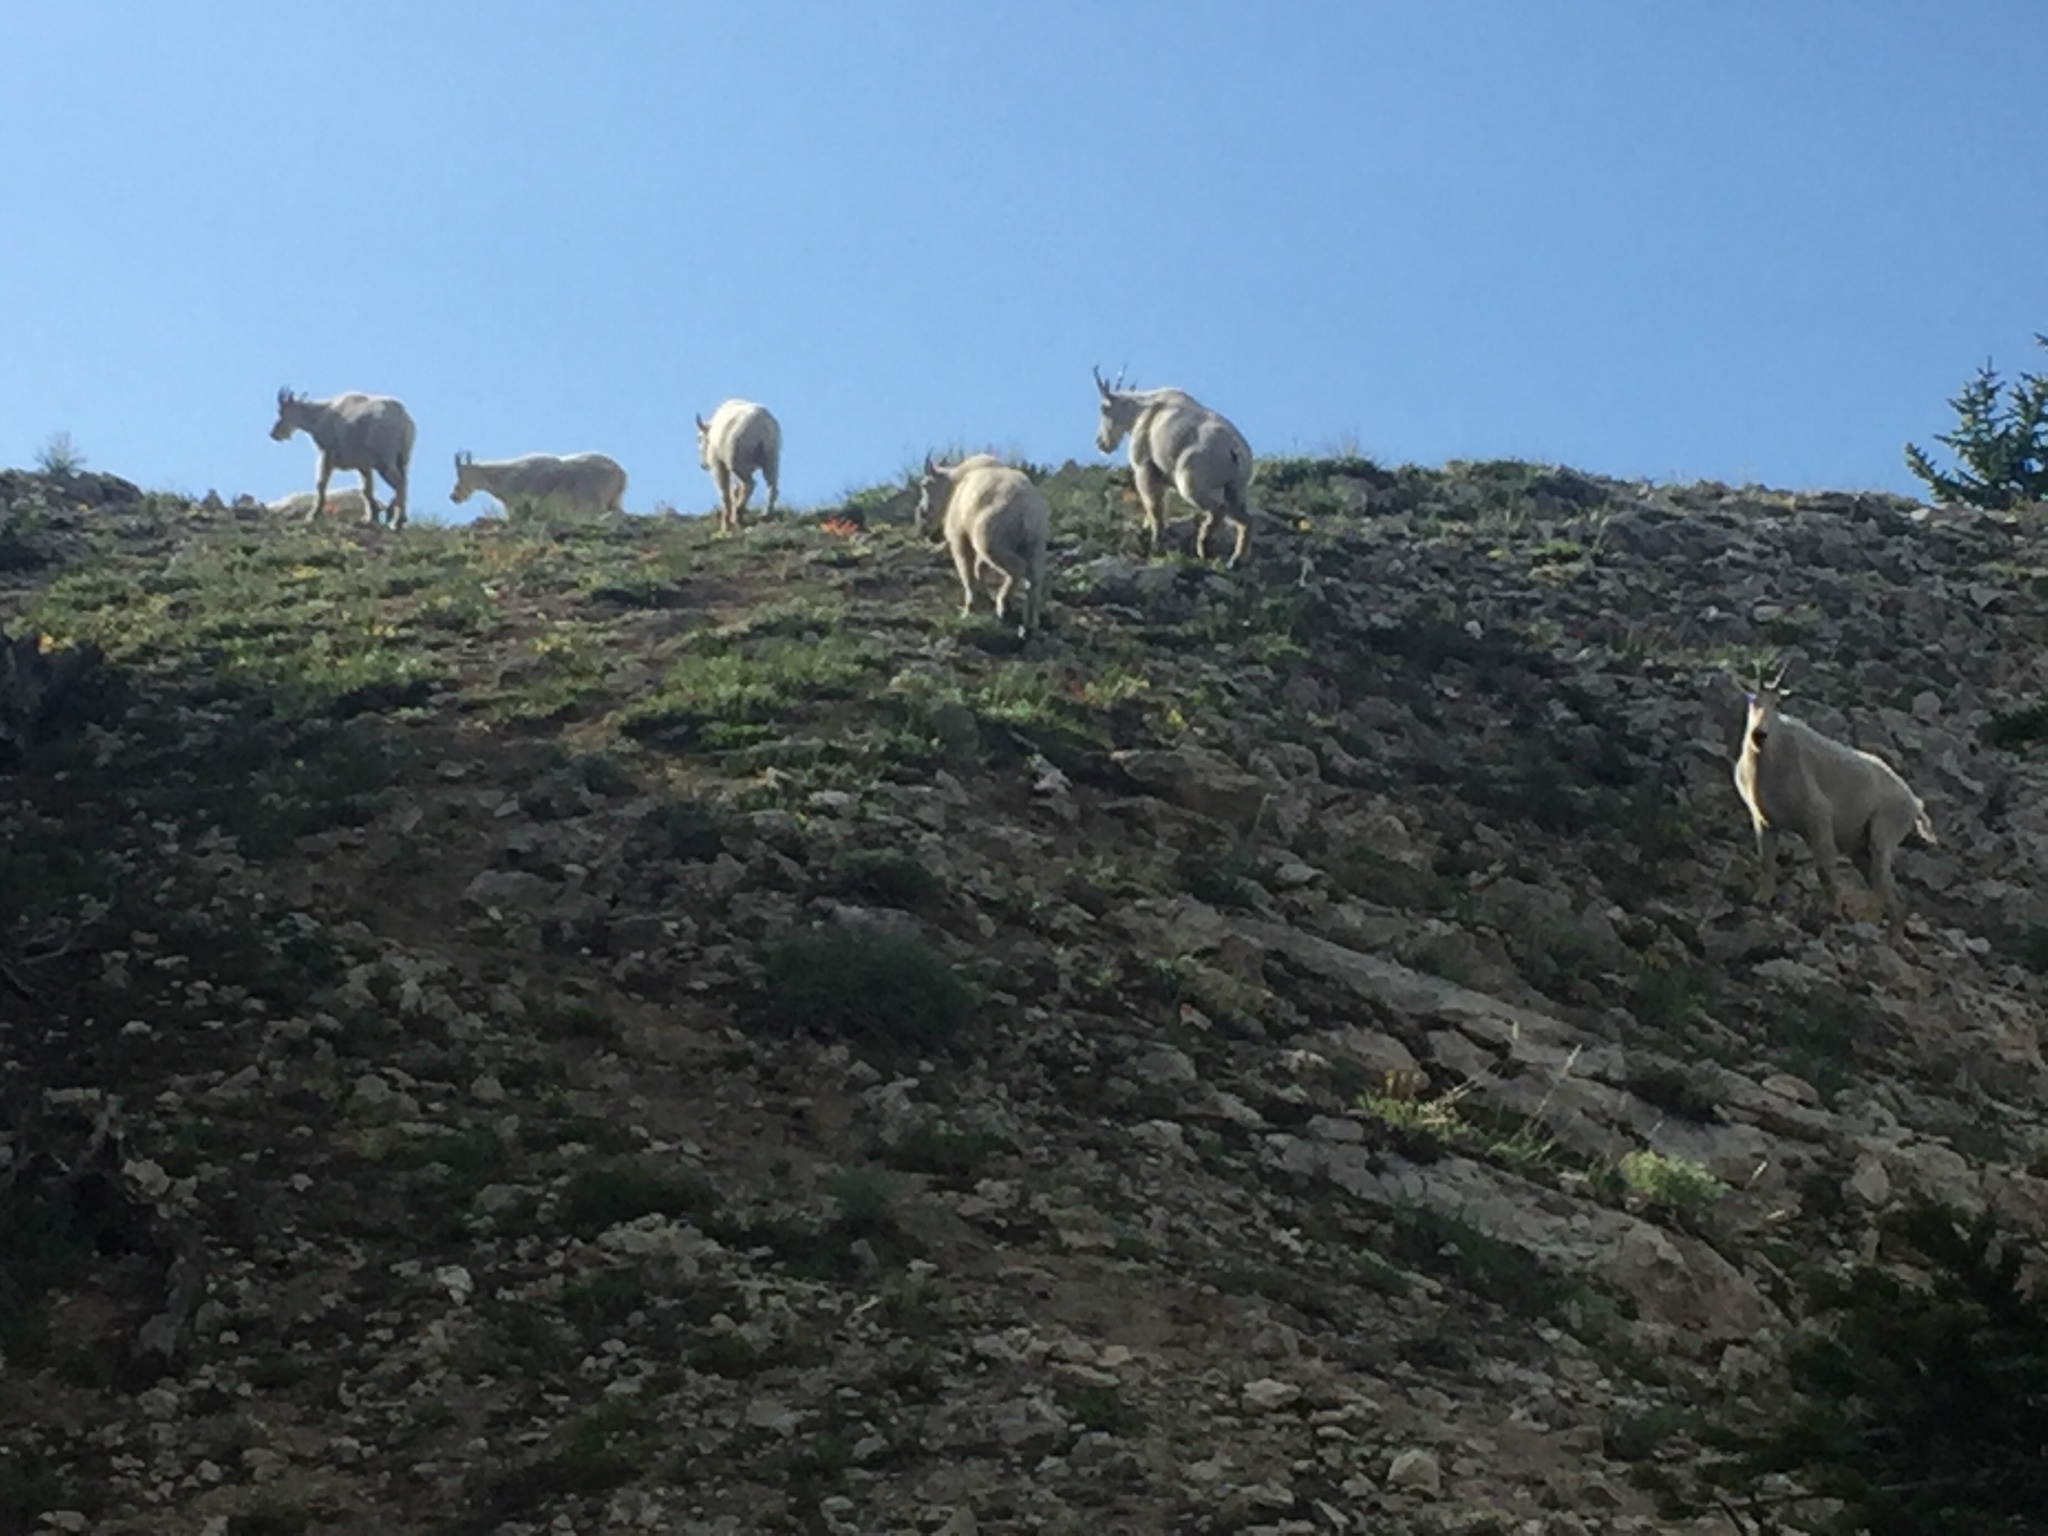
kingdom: Animalia
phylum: Chordata
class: Mammalia
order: Artiodactyla
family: Bovidae
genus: Oreamnos
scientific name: Oreamnos americanus
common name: Mountain goat
